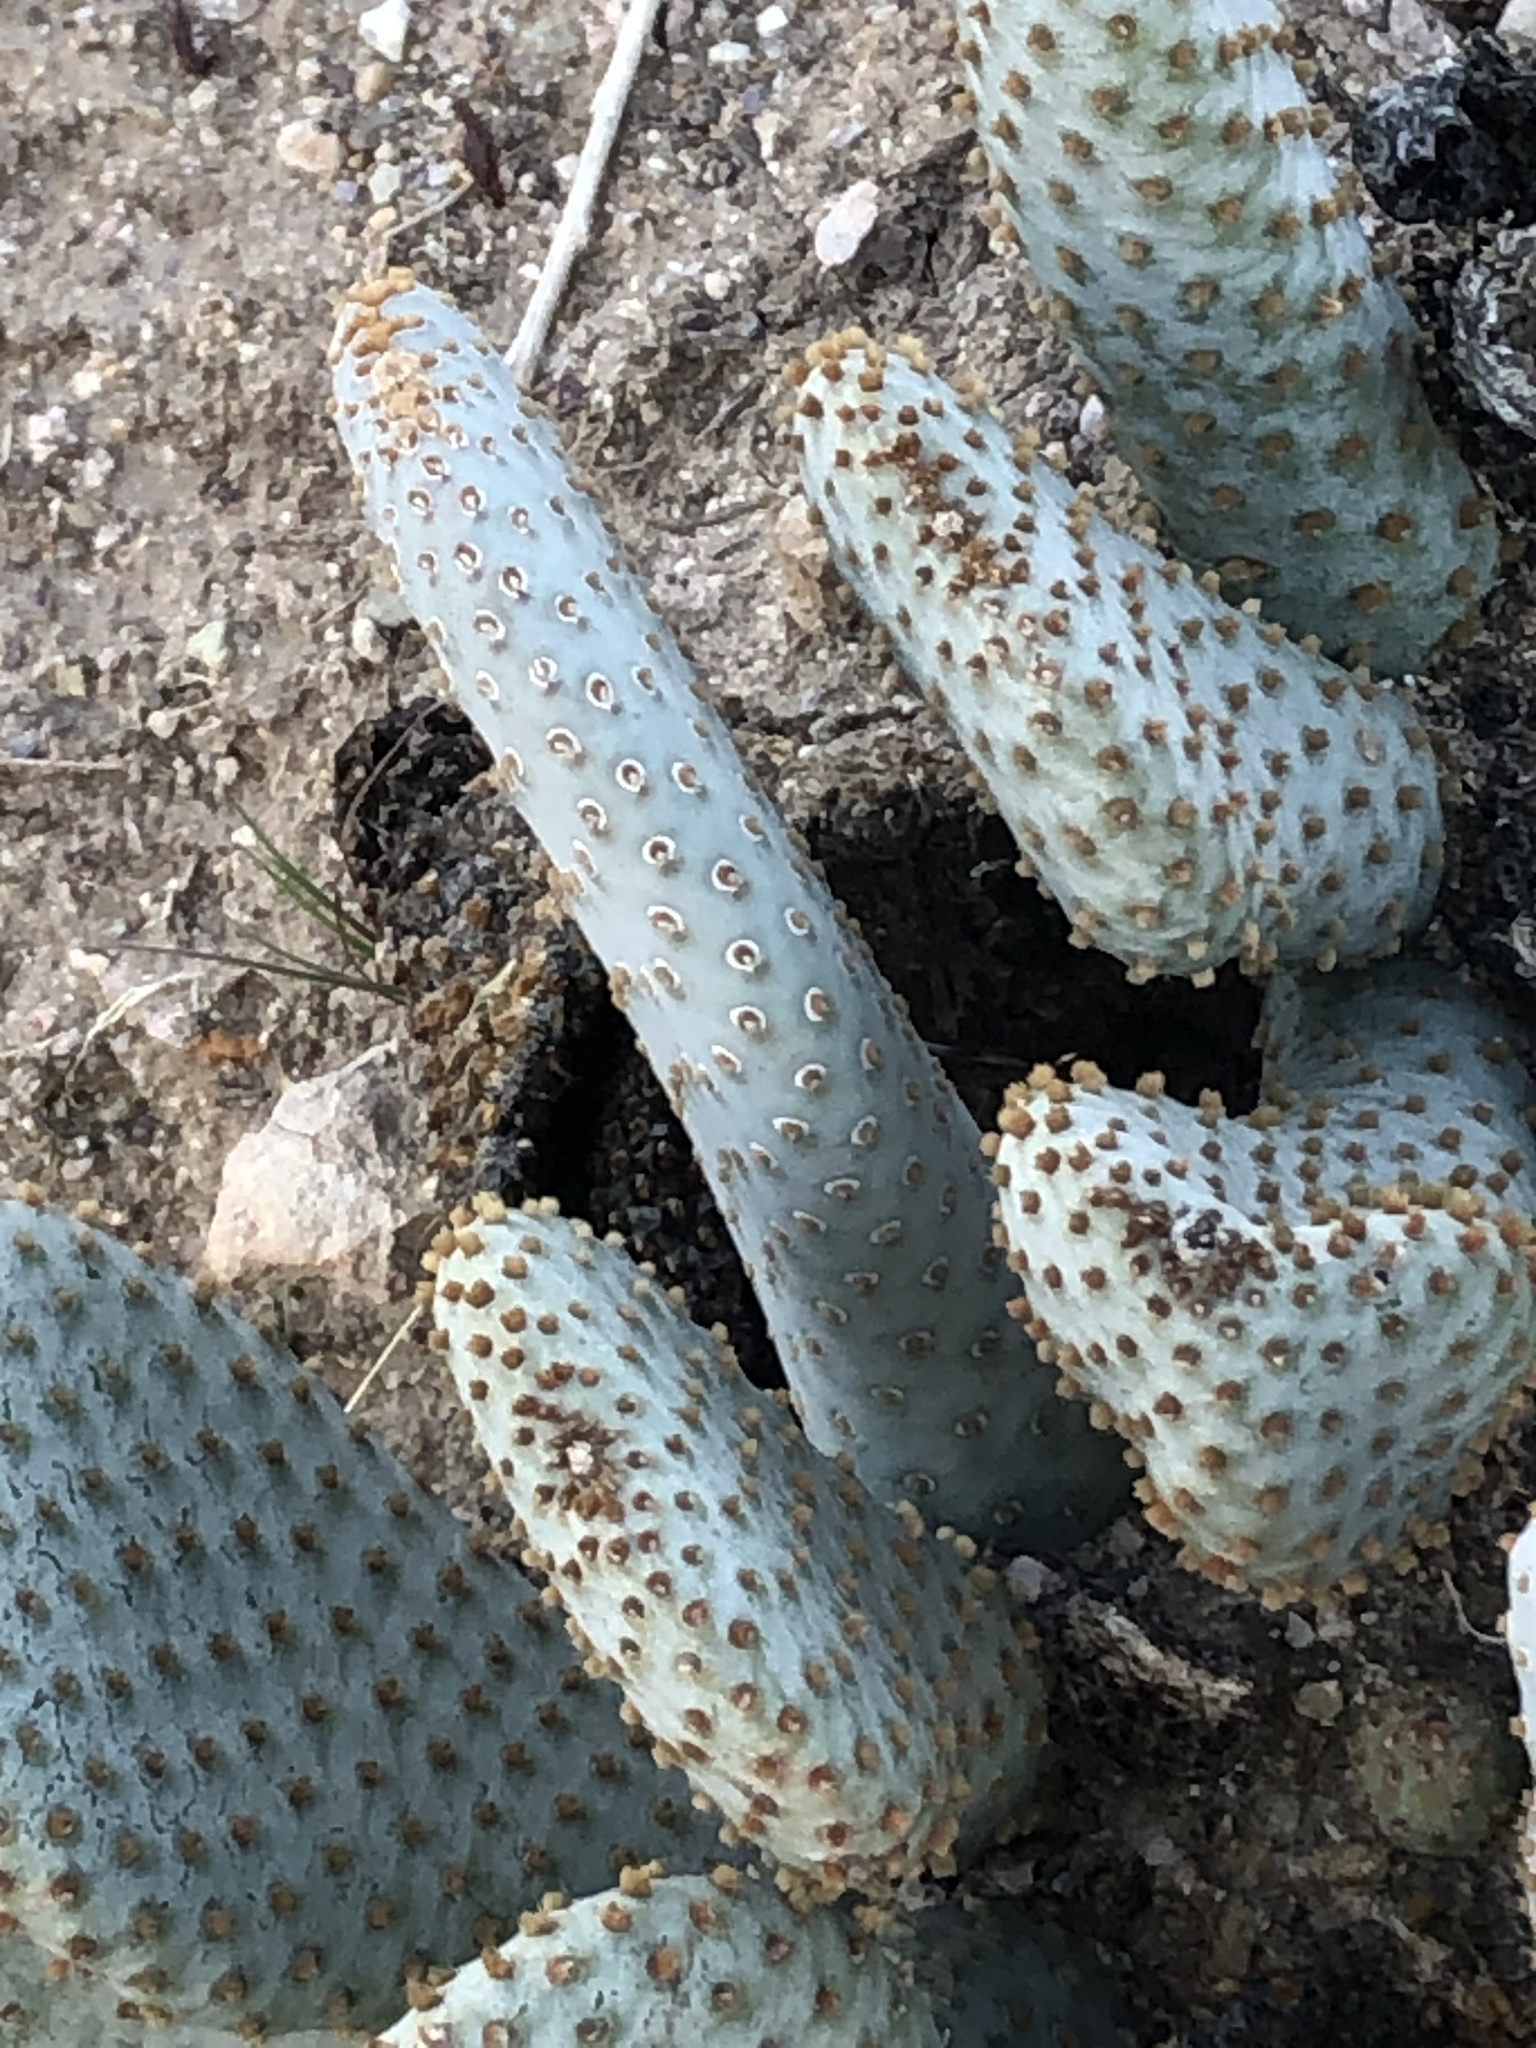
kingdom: Plantae
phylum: Tracheophyta
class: Magnoliopsida
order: Caryophyllales
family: Cactaceae
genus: Opuntia
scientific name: Opuntia basilaris
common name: Beavertail prickly-pear
